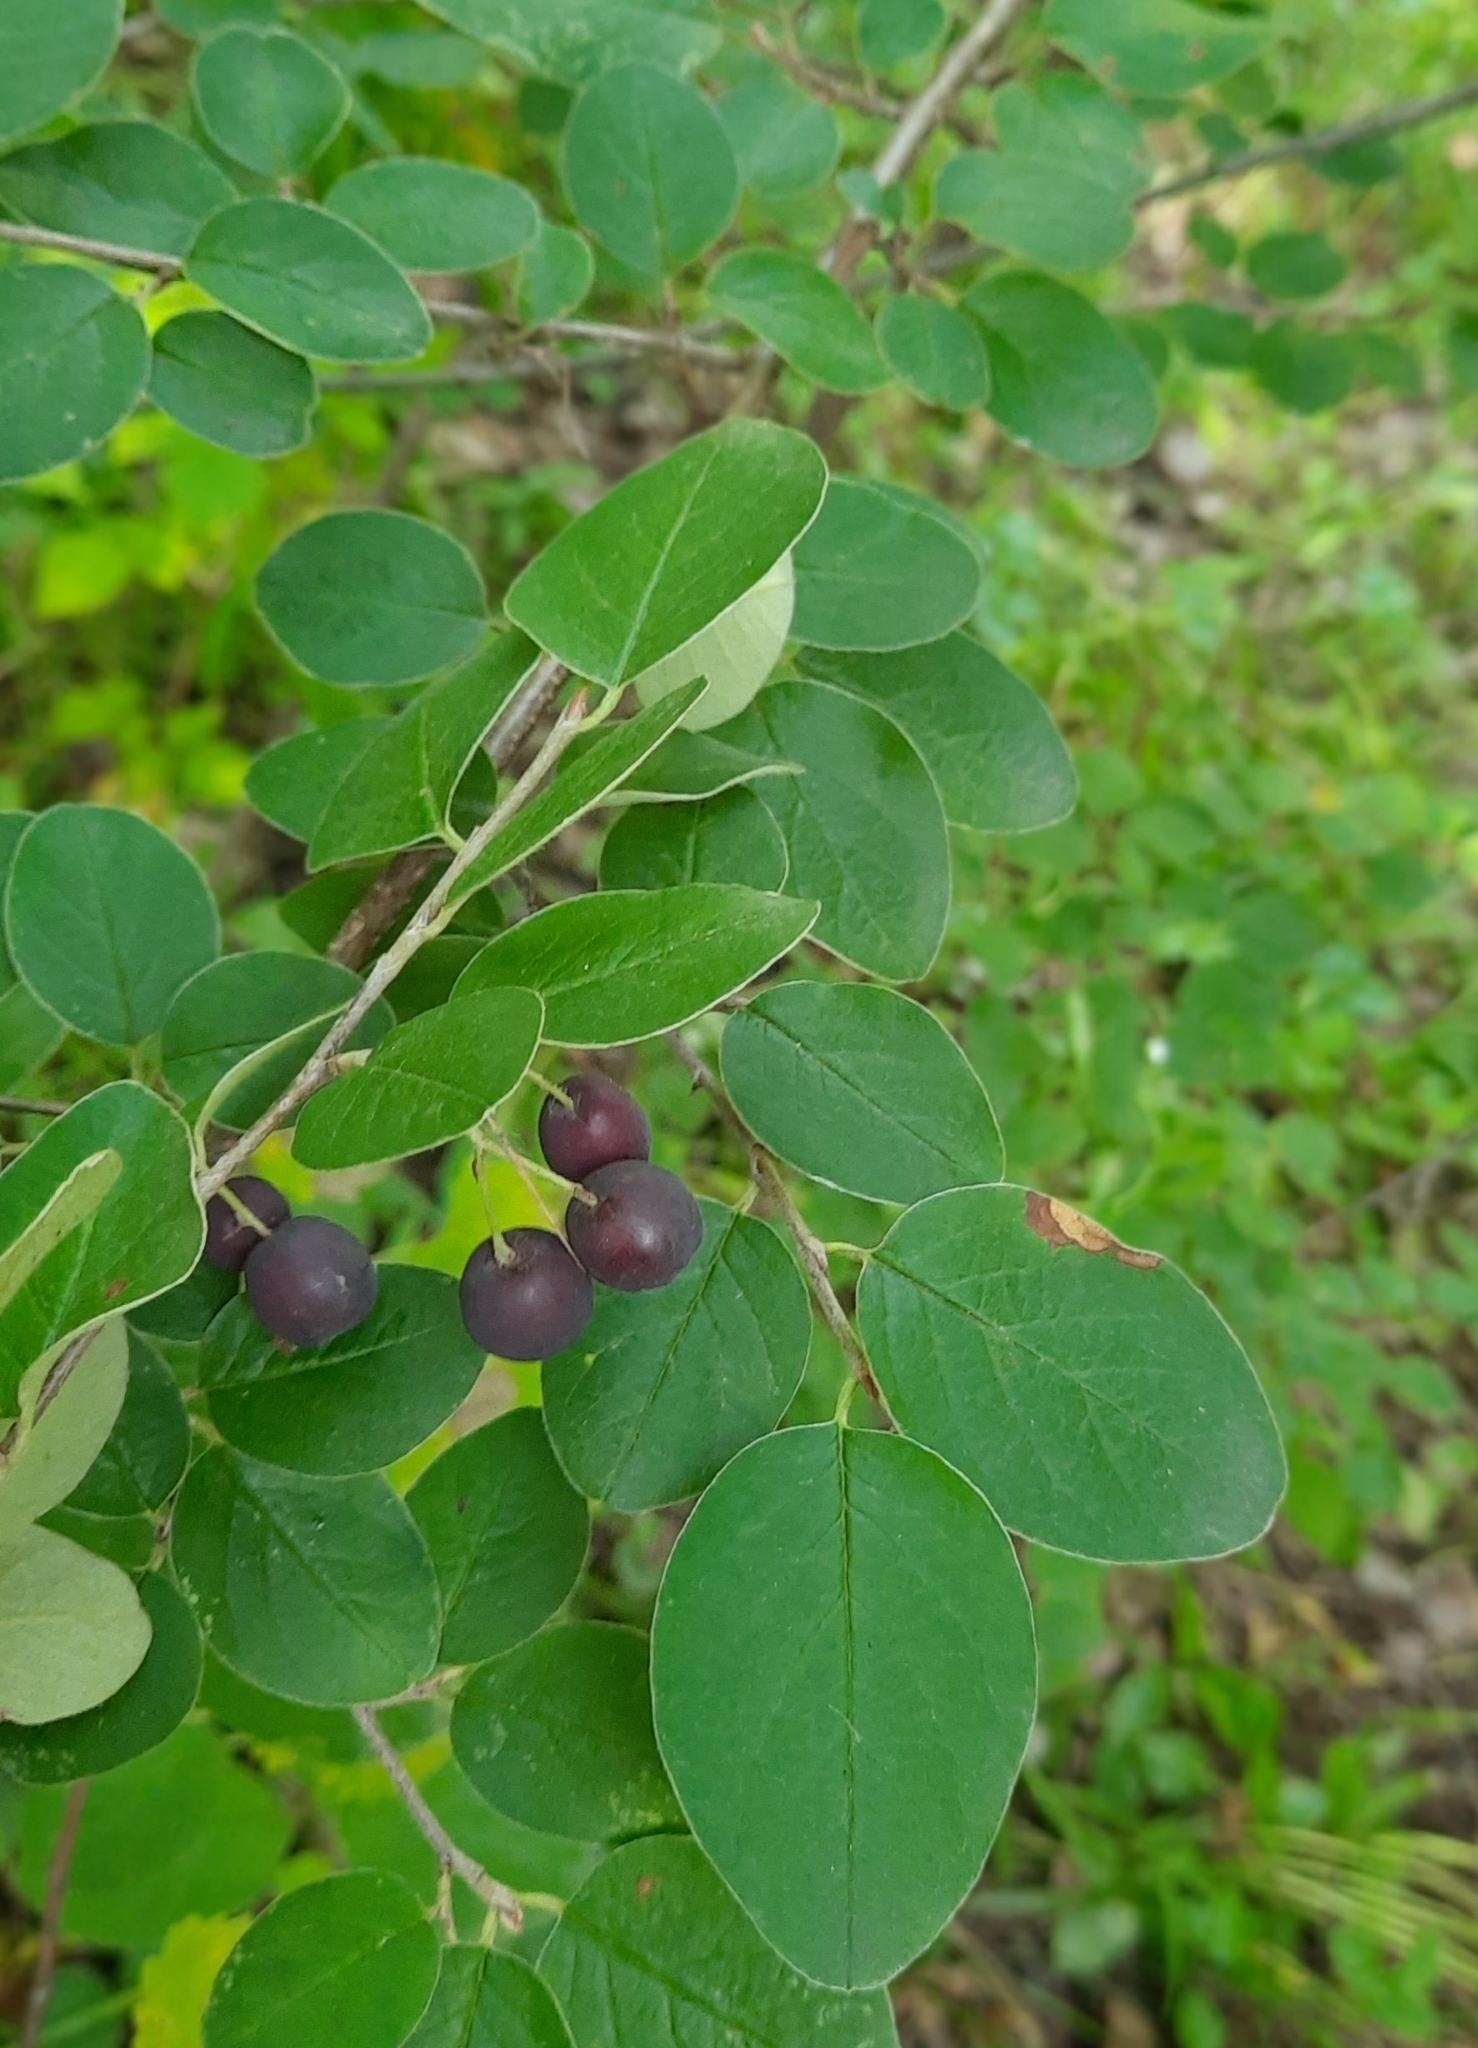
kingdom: Plantae
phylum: Tracheophyta
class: Magnoliopsida
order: Rosales
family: Rosaceae
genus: Cotoneaster
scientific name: Cotoneaster melanocarpus
